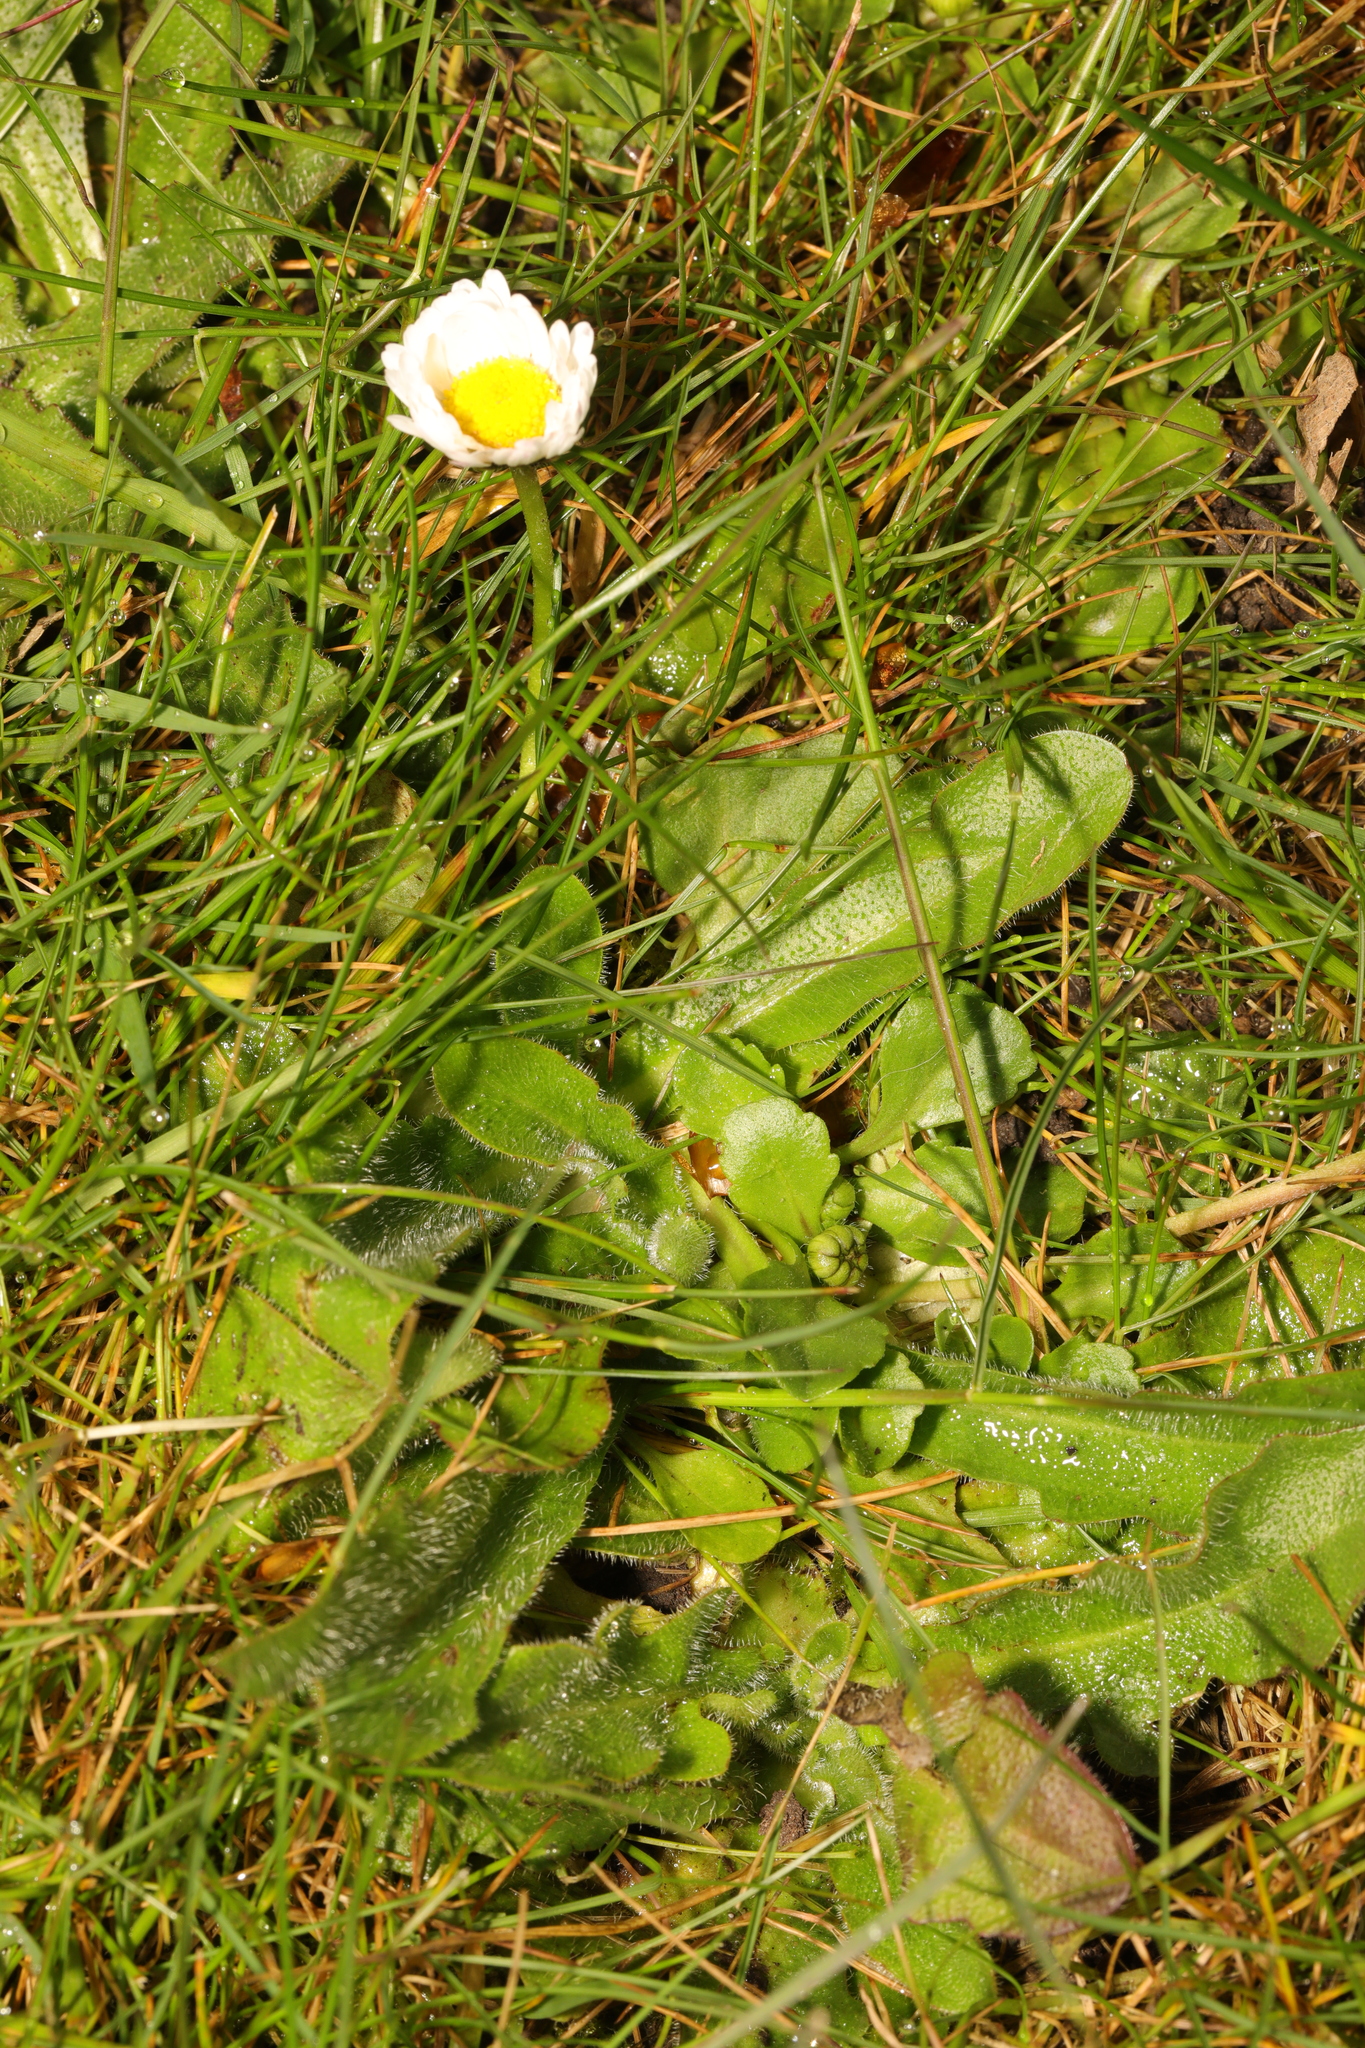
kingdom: Plantae
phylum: Tracheophyta
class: Magnoliopsida
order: Asterales
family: Asteraceae
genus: Bellis
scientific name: Bellis perennis
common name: Lawndaisy
